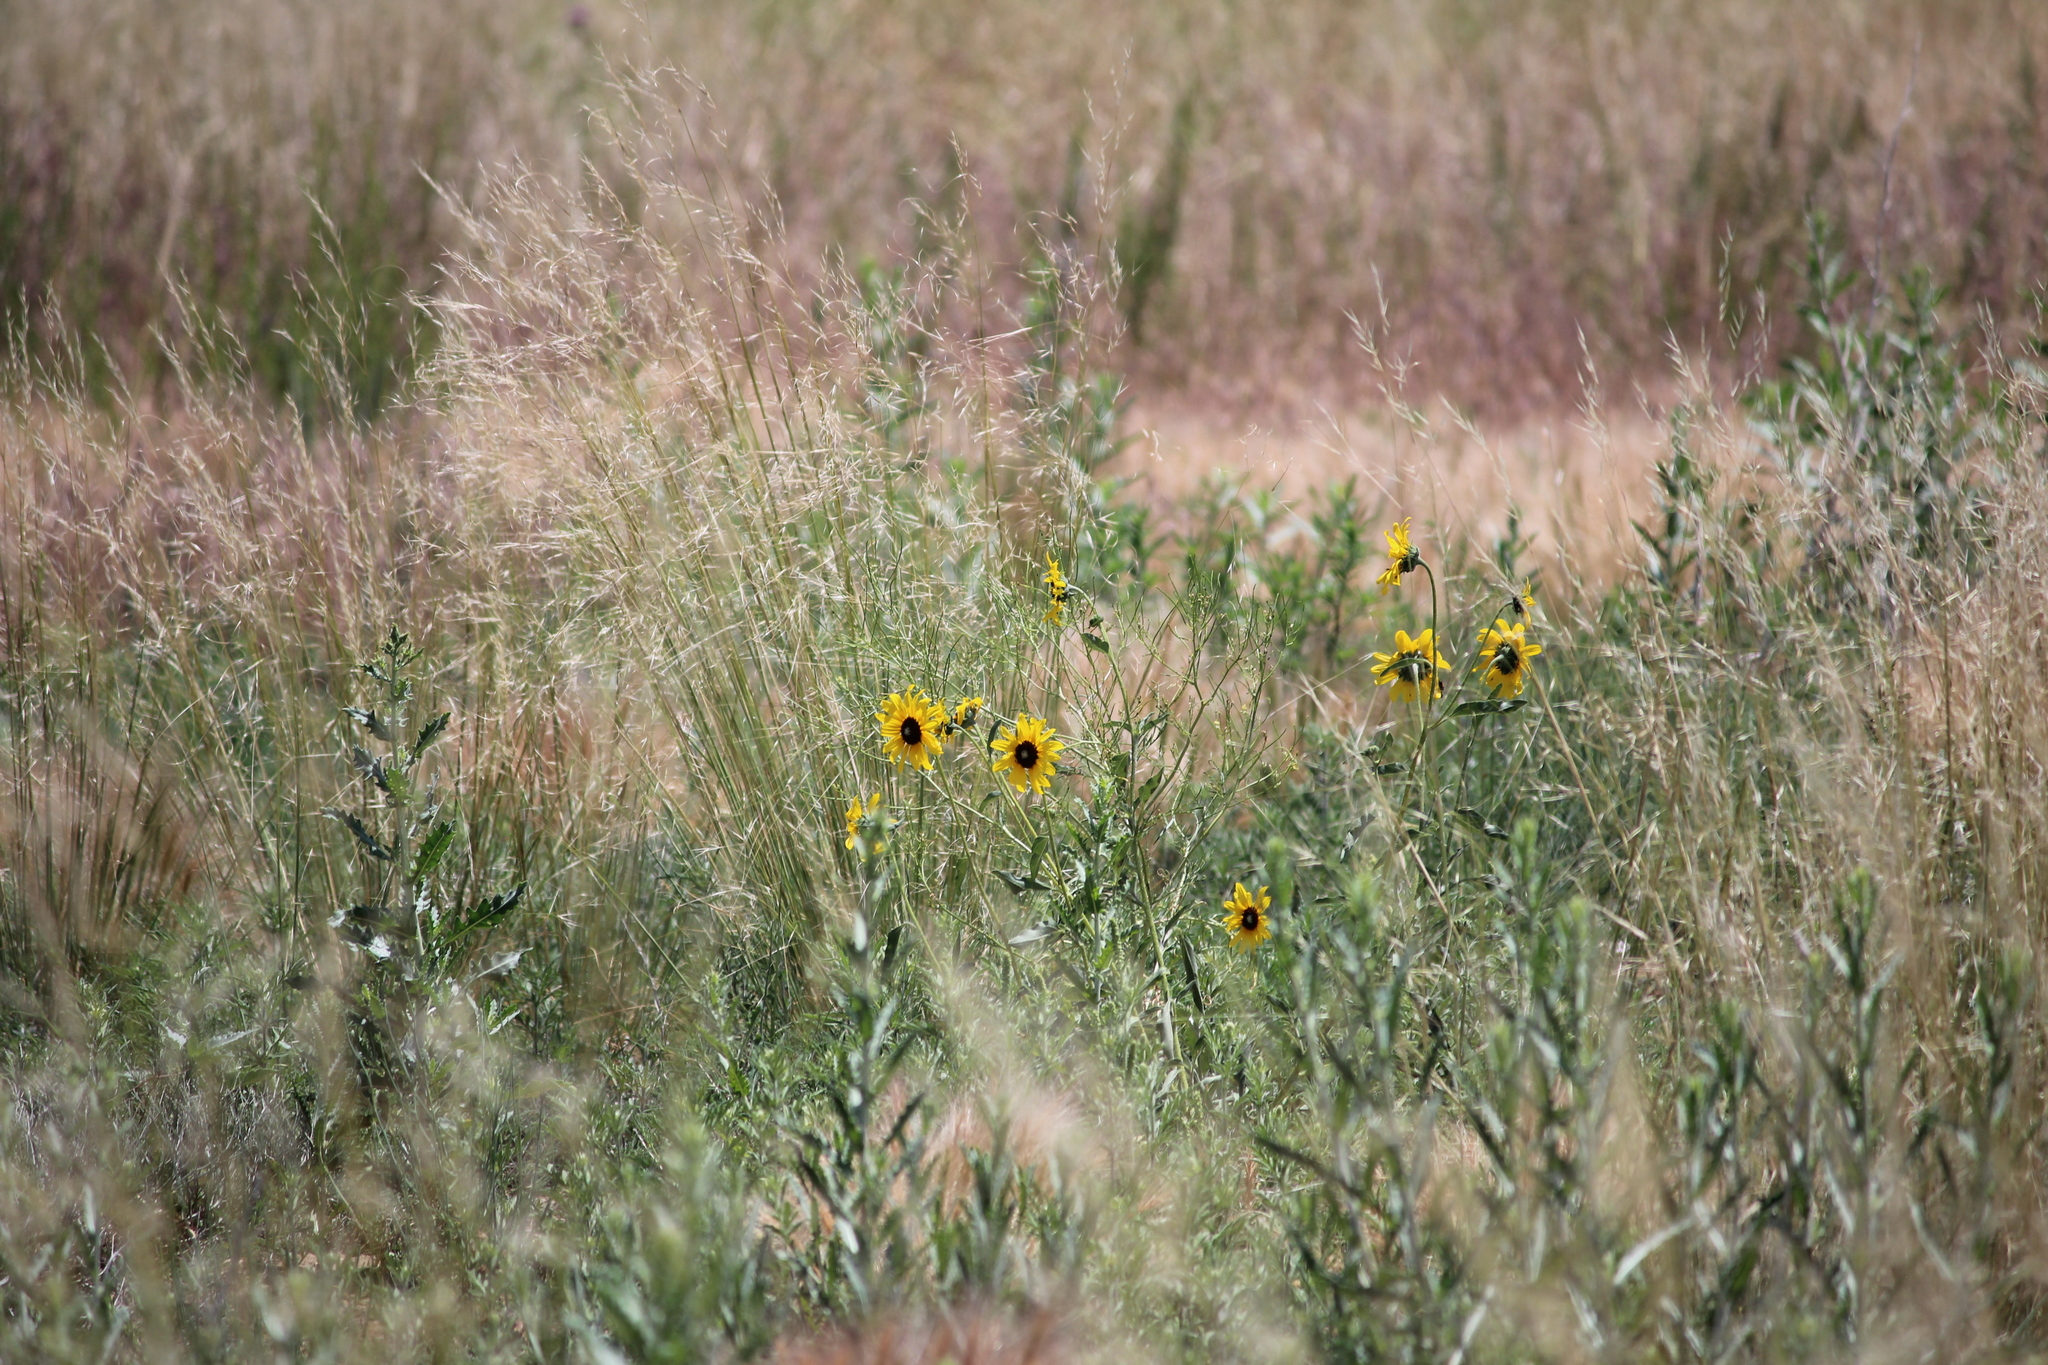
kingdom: Plantae
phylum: Tracheophyta
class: Magnoliopsida
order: Asterales
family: Asteraceae
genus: Helianthus
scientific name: Helianthus petiolaris
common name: Lesser sunflower
